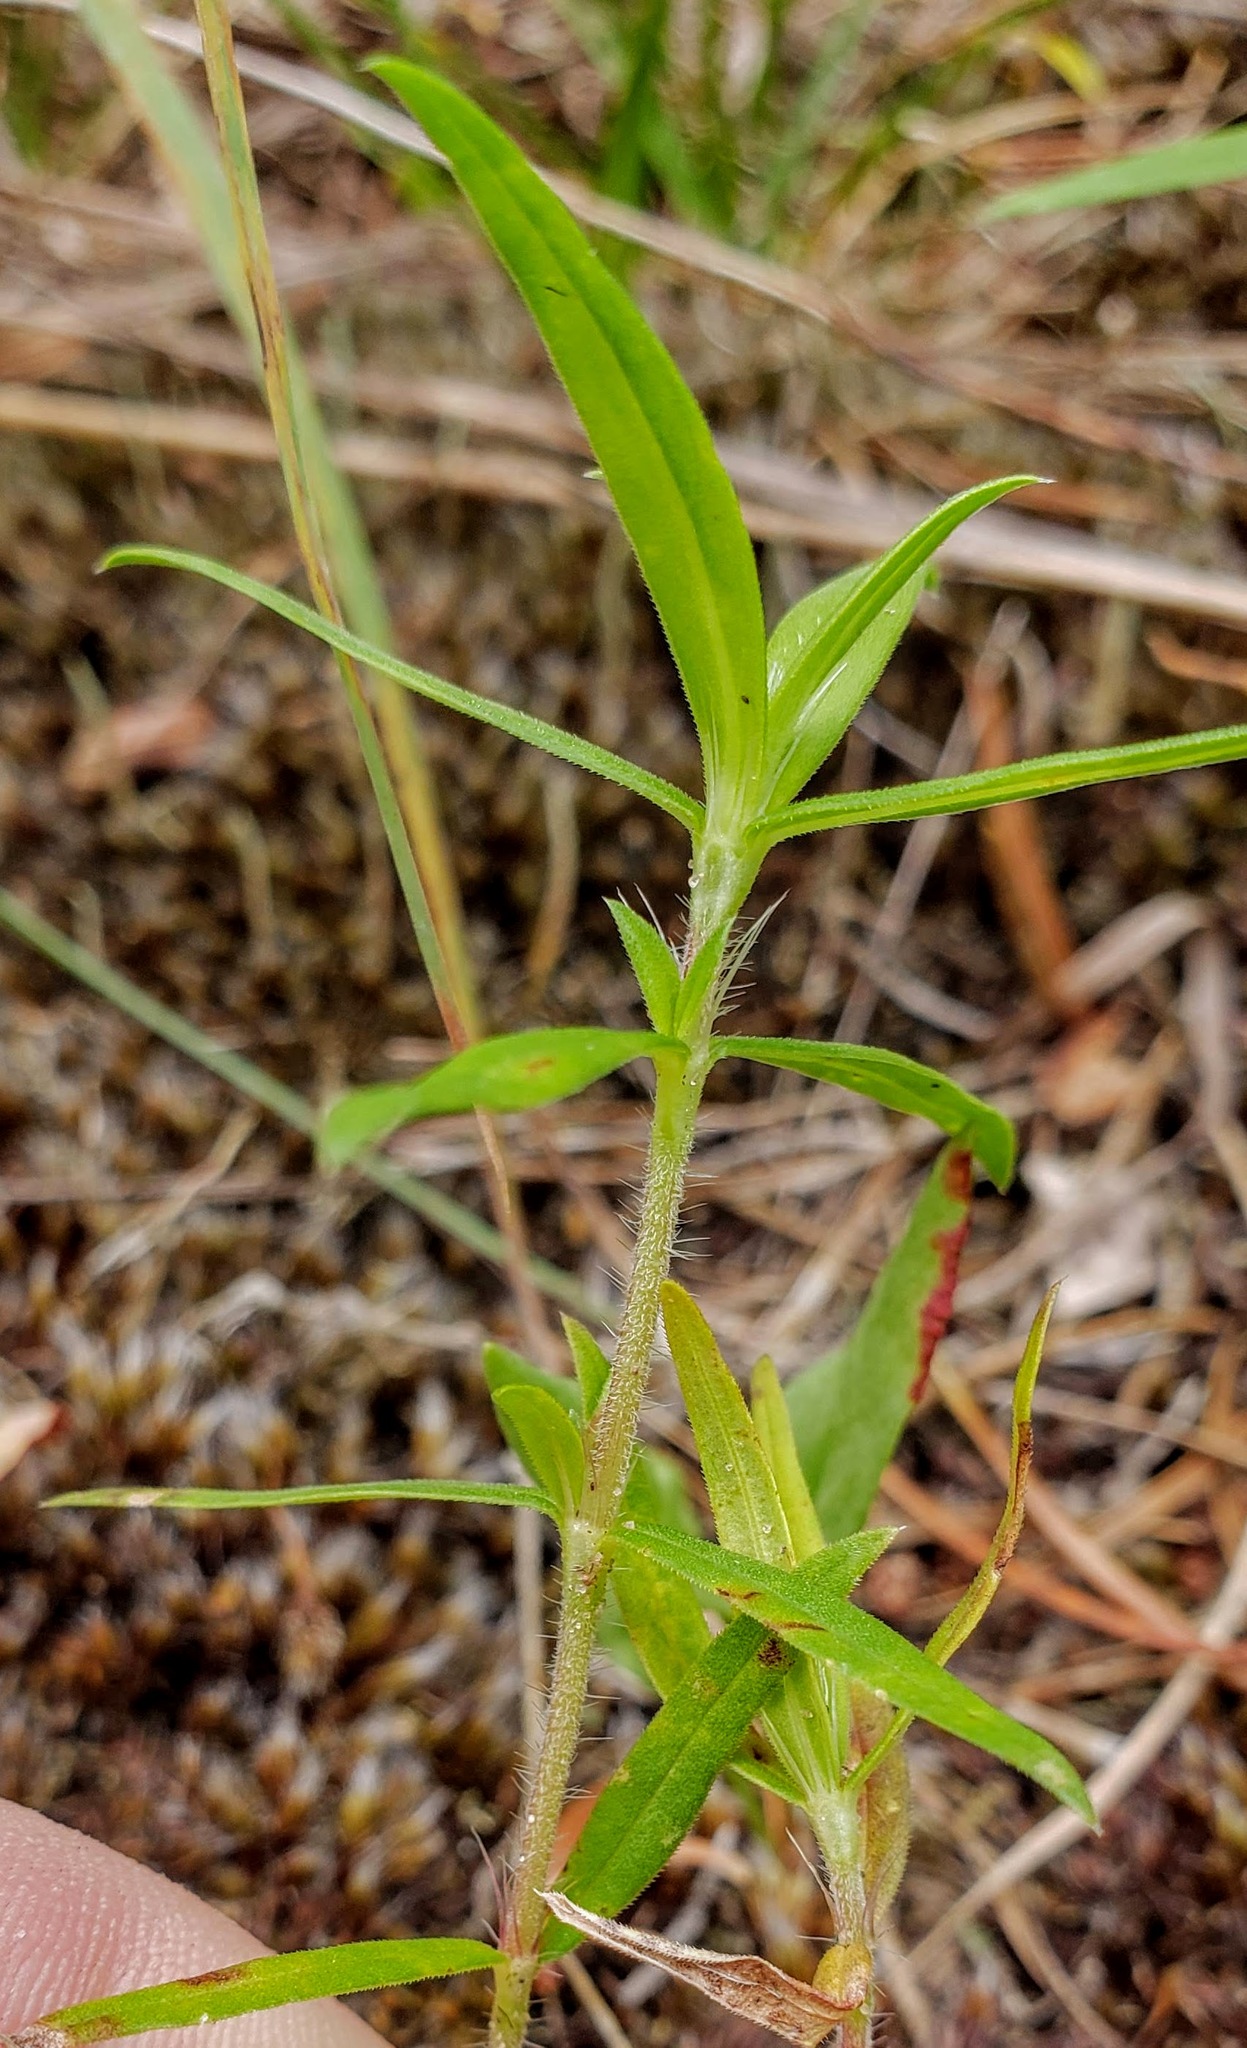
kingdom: Plantae
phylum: Tracheophyta
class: Magnoliopsida
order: Gentianales
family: Rubiaceae
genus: Hexasepalum
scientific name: Hexasepalum teres
